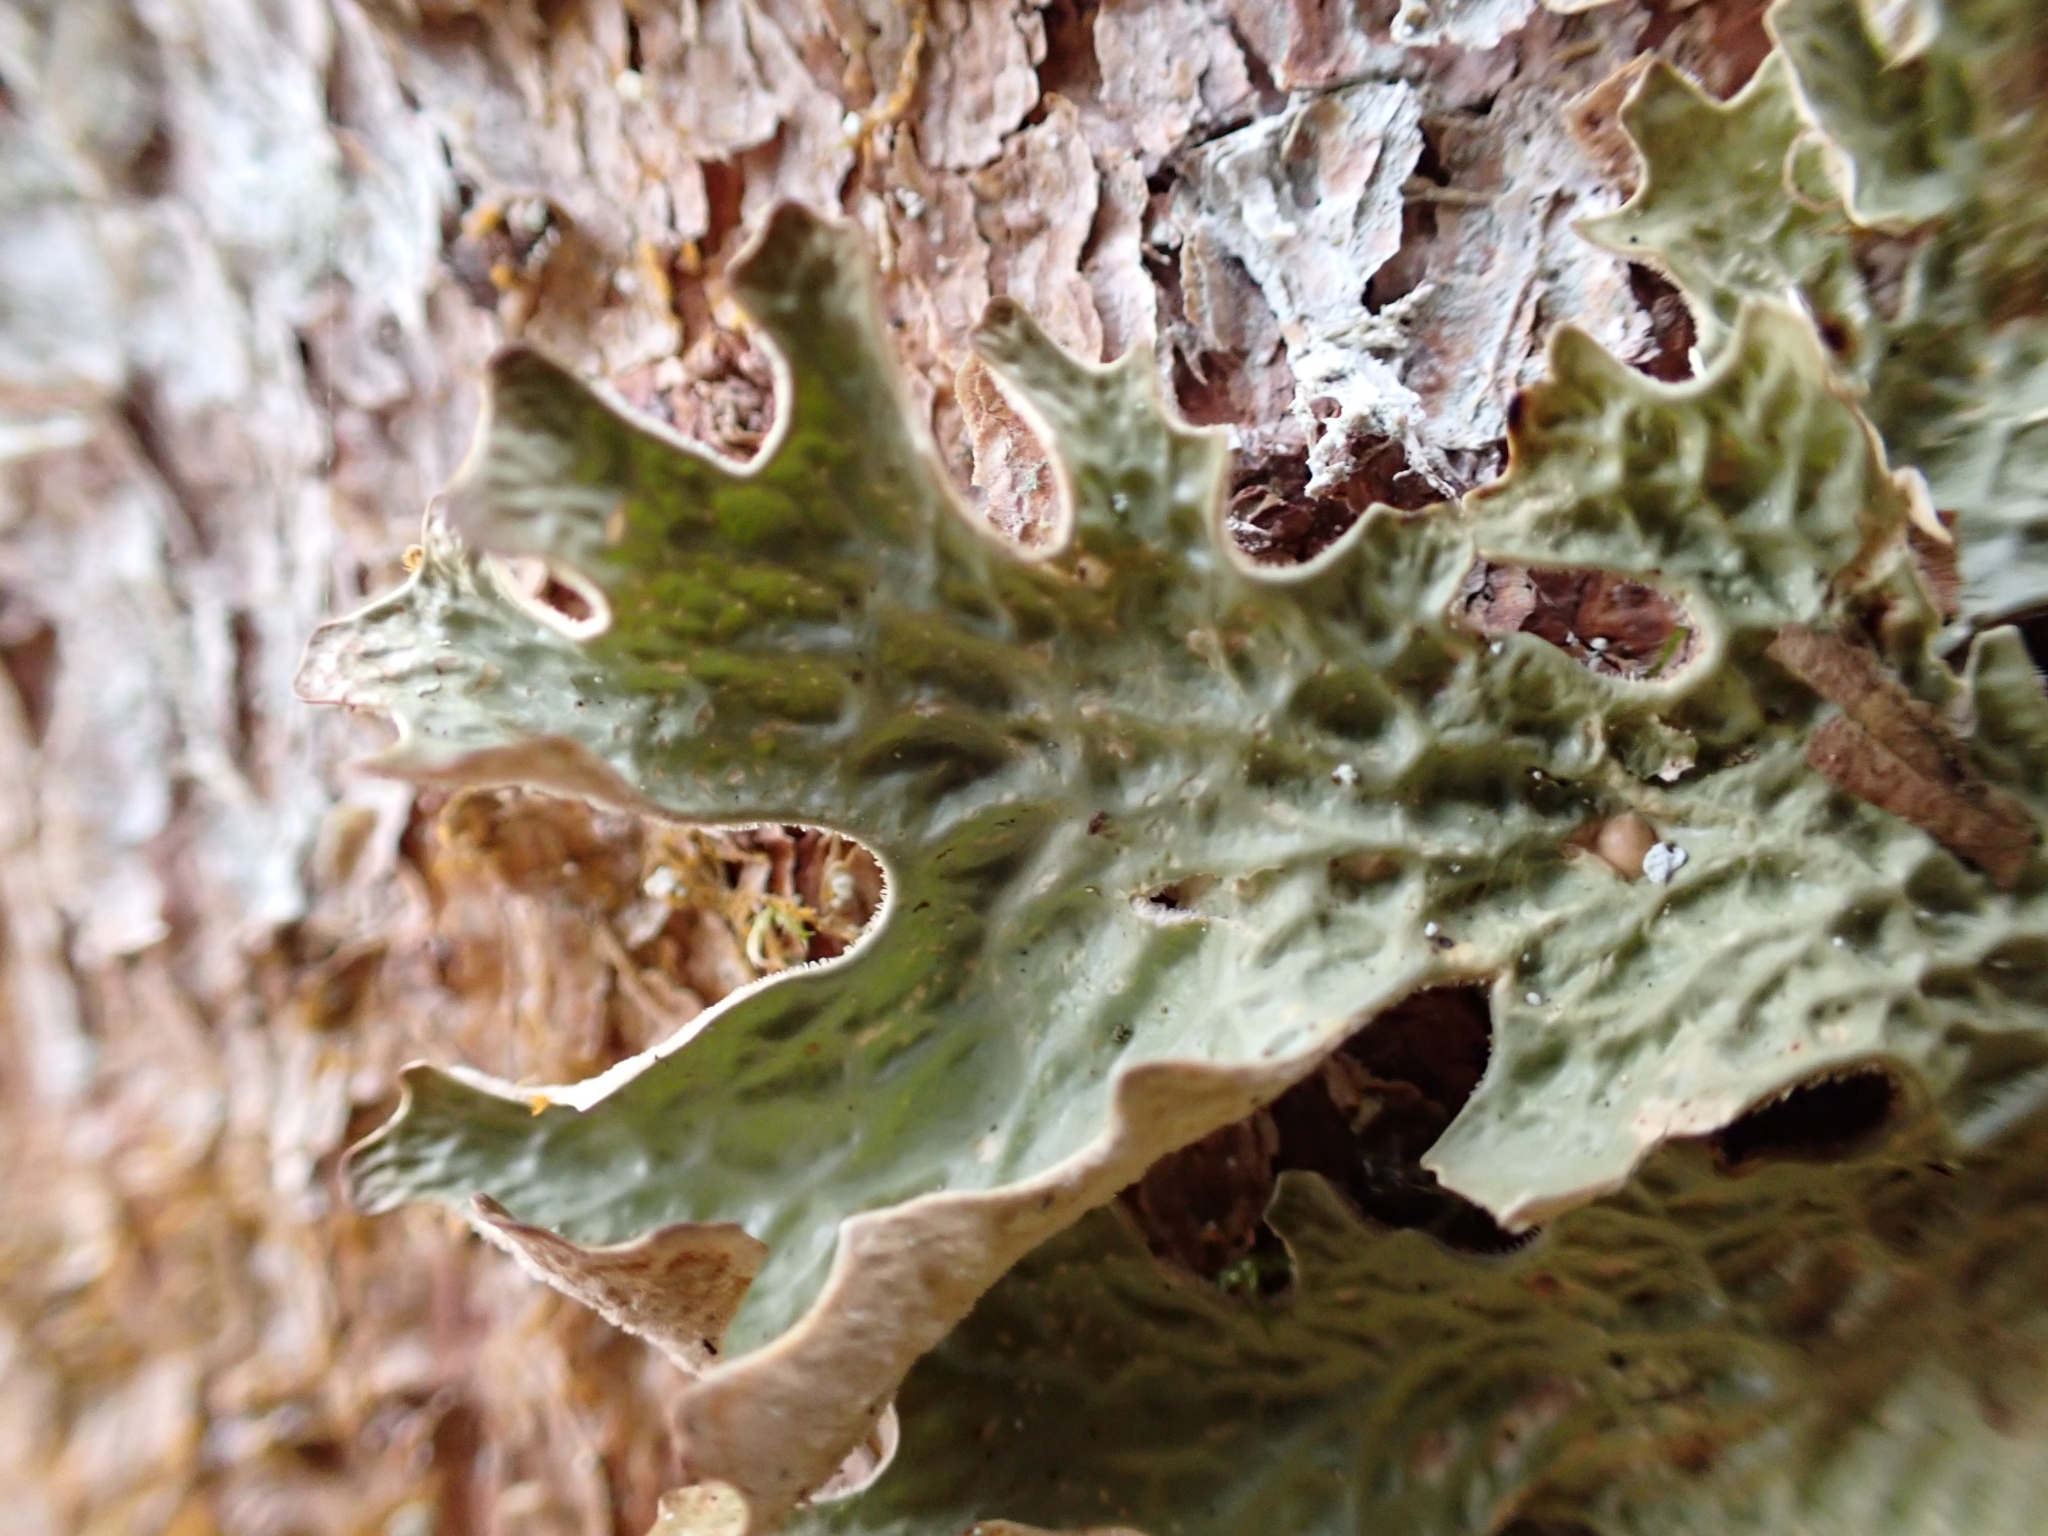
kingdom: Fungi
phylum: Ascomycota
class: Lecanoromycetes
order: Peltigerales
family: Lobariaceae
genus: Lobaria
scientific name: Lobaria pulmonaria
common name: Lungwort
